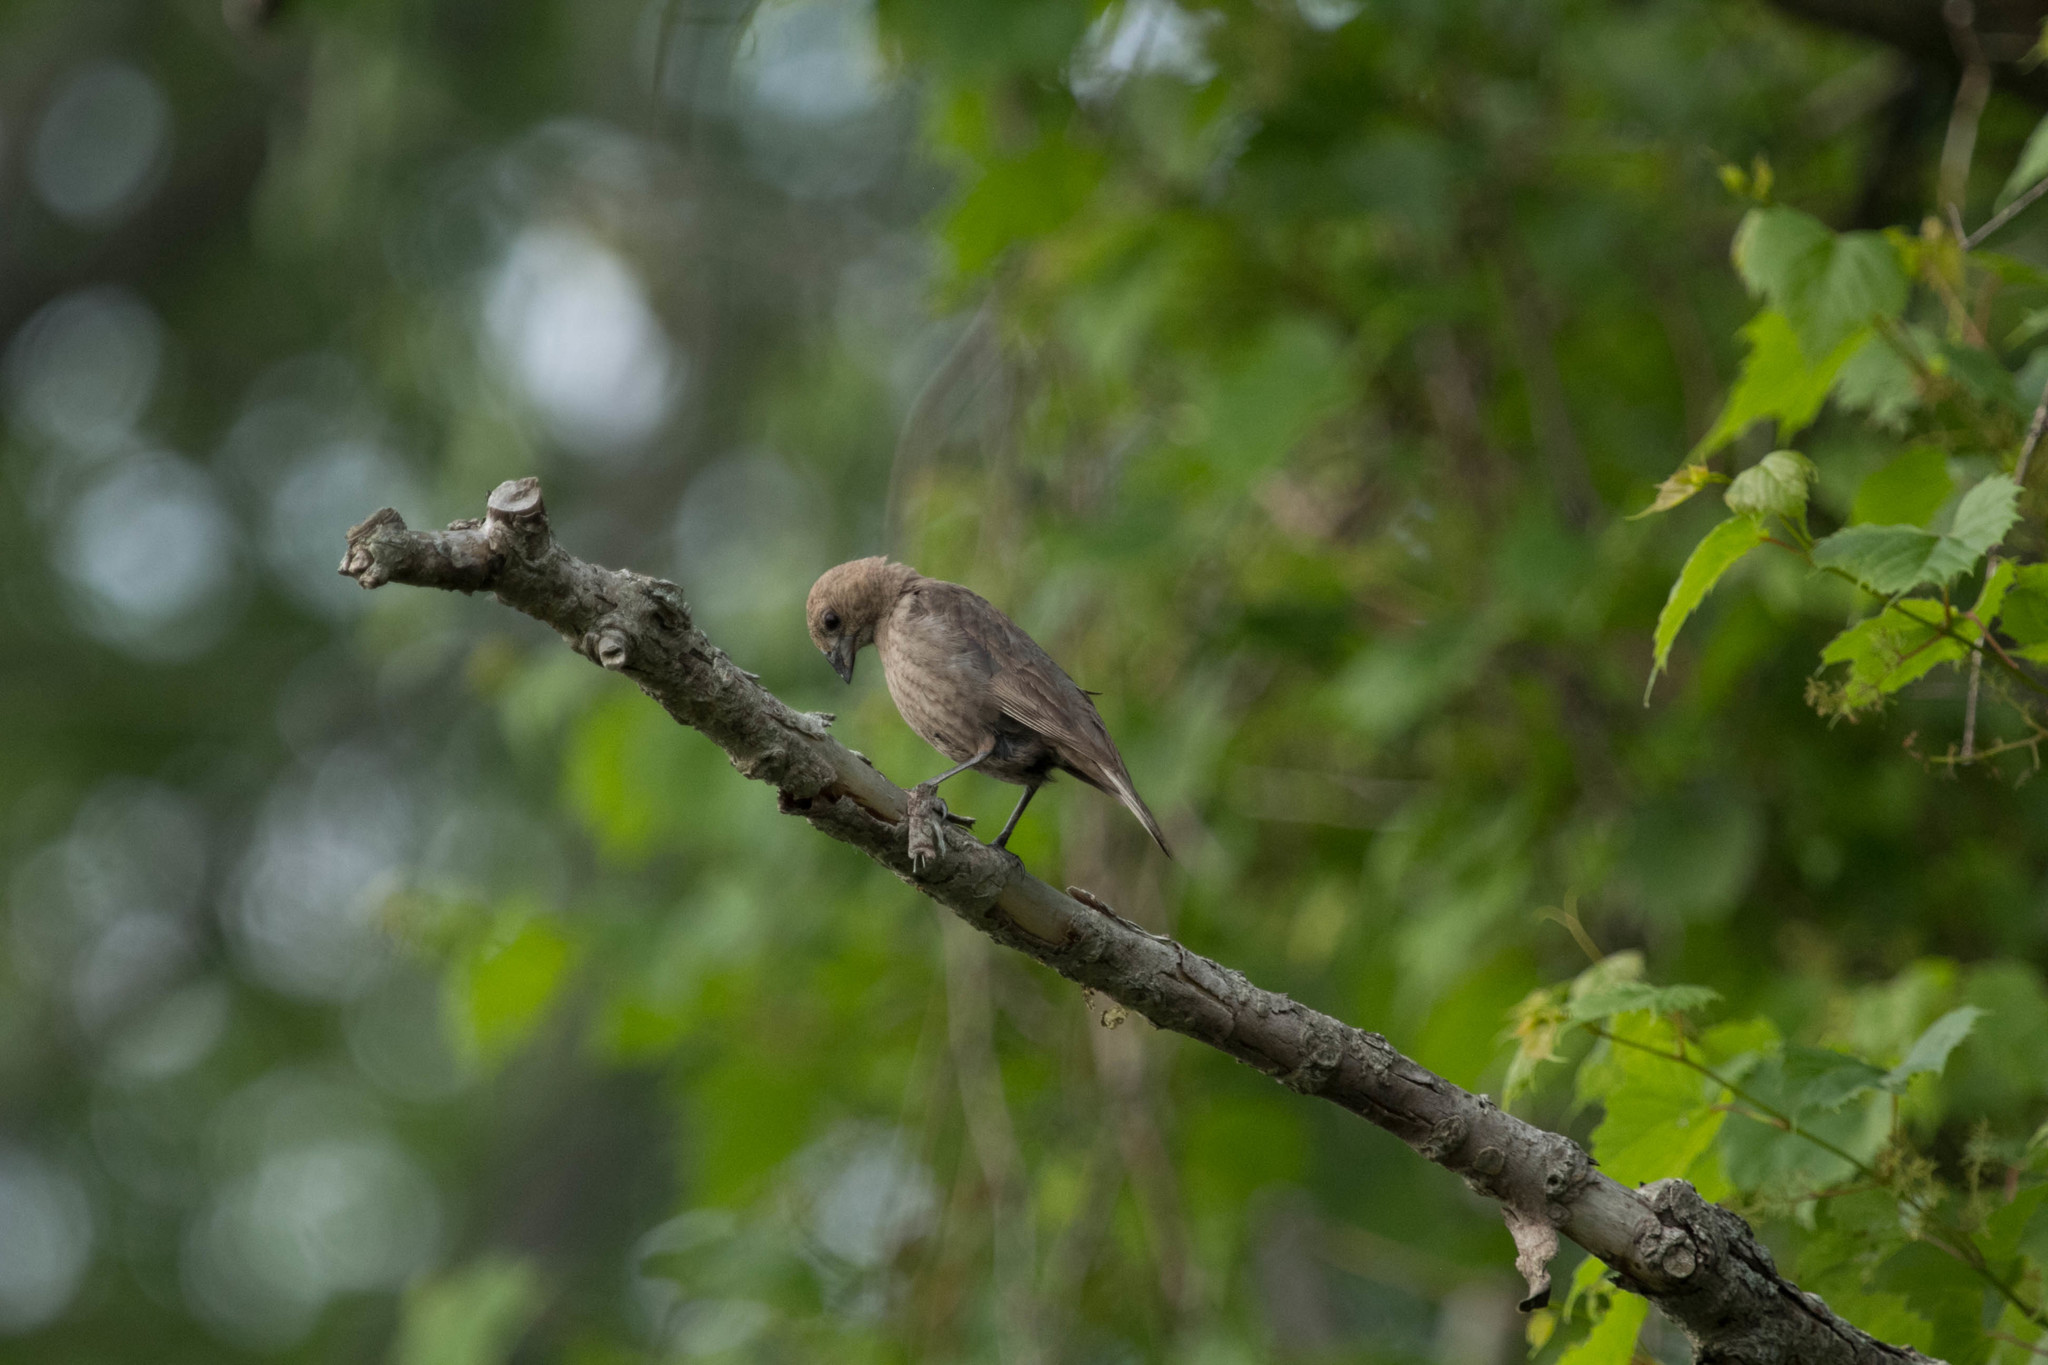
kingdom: Animalia
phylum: Chordata
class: Aves
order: Passeriformes
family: Icteridae
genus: Molothrus
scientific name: Molothrus ater
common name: Brown-headed cowbird
